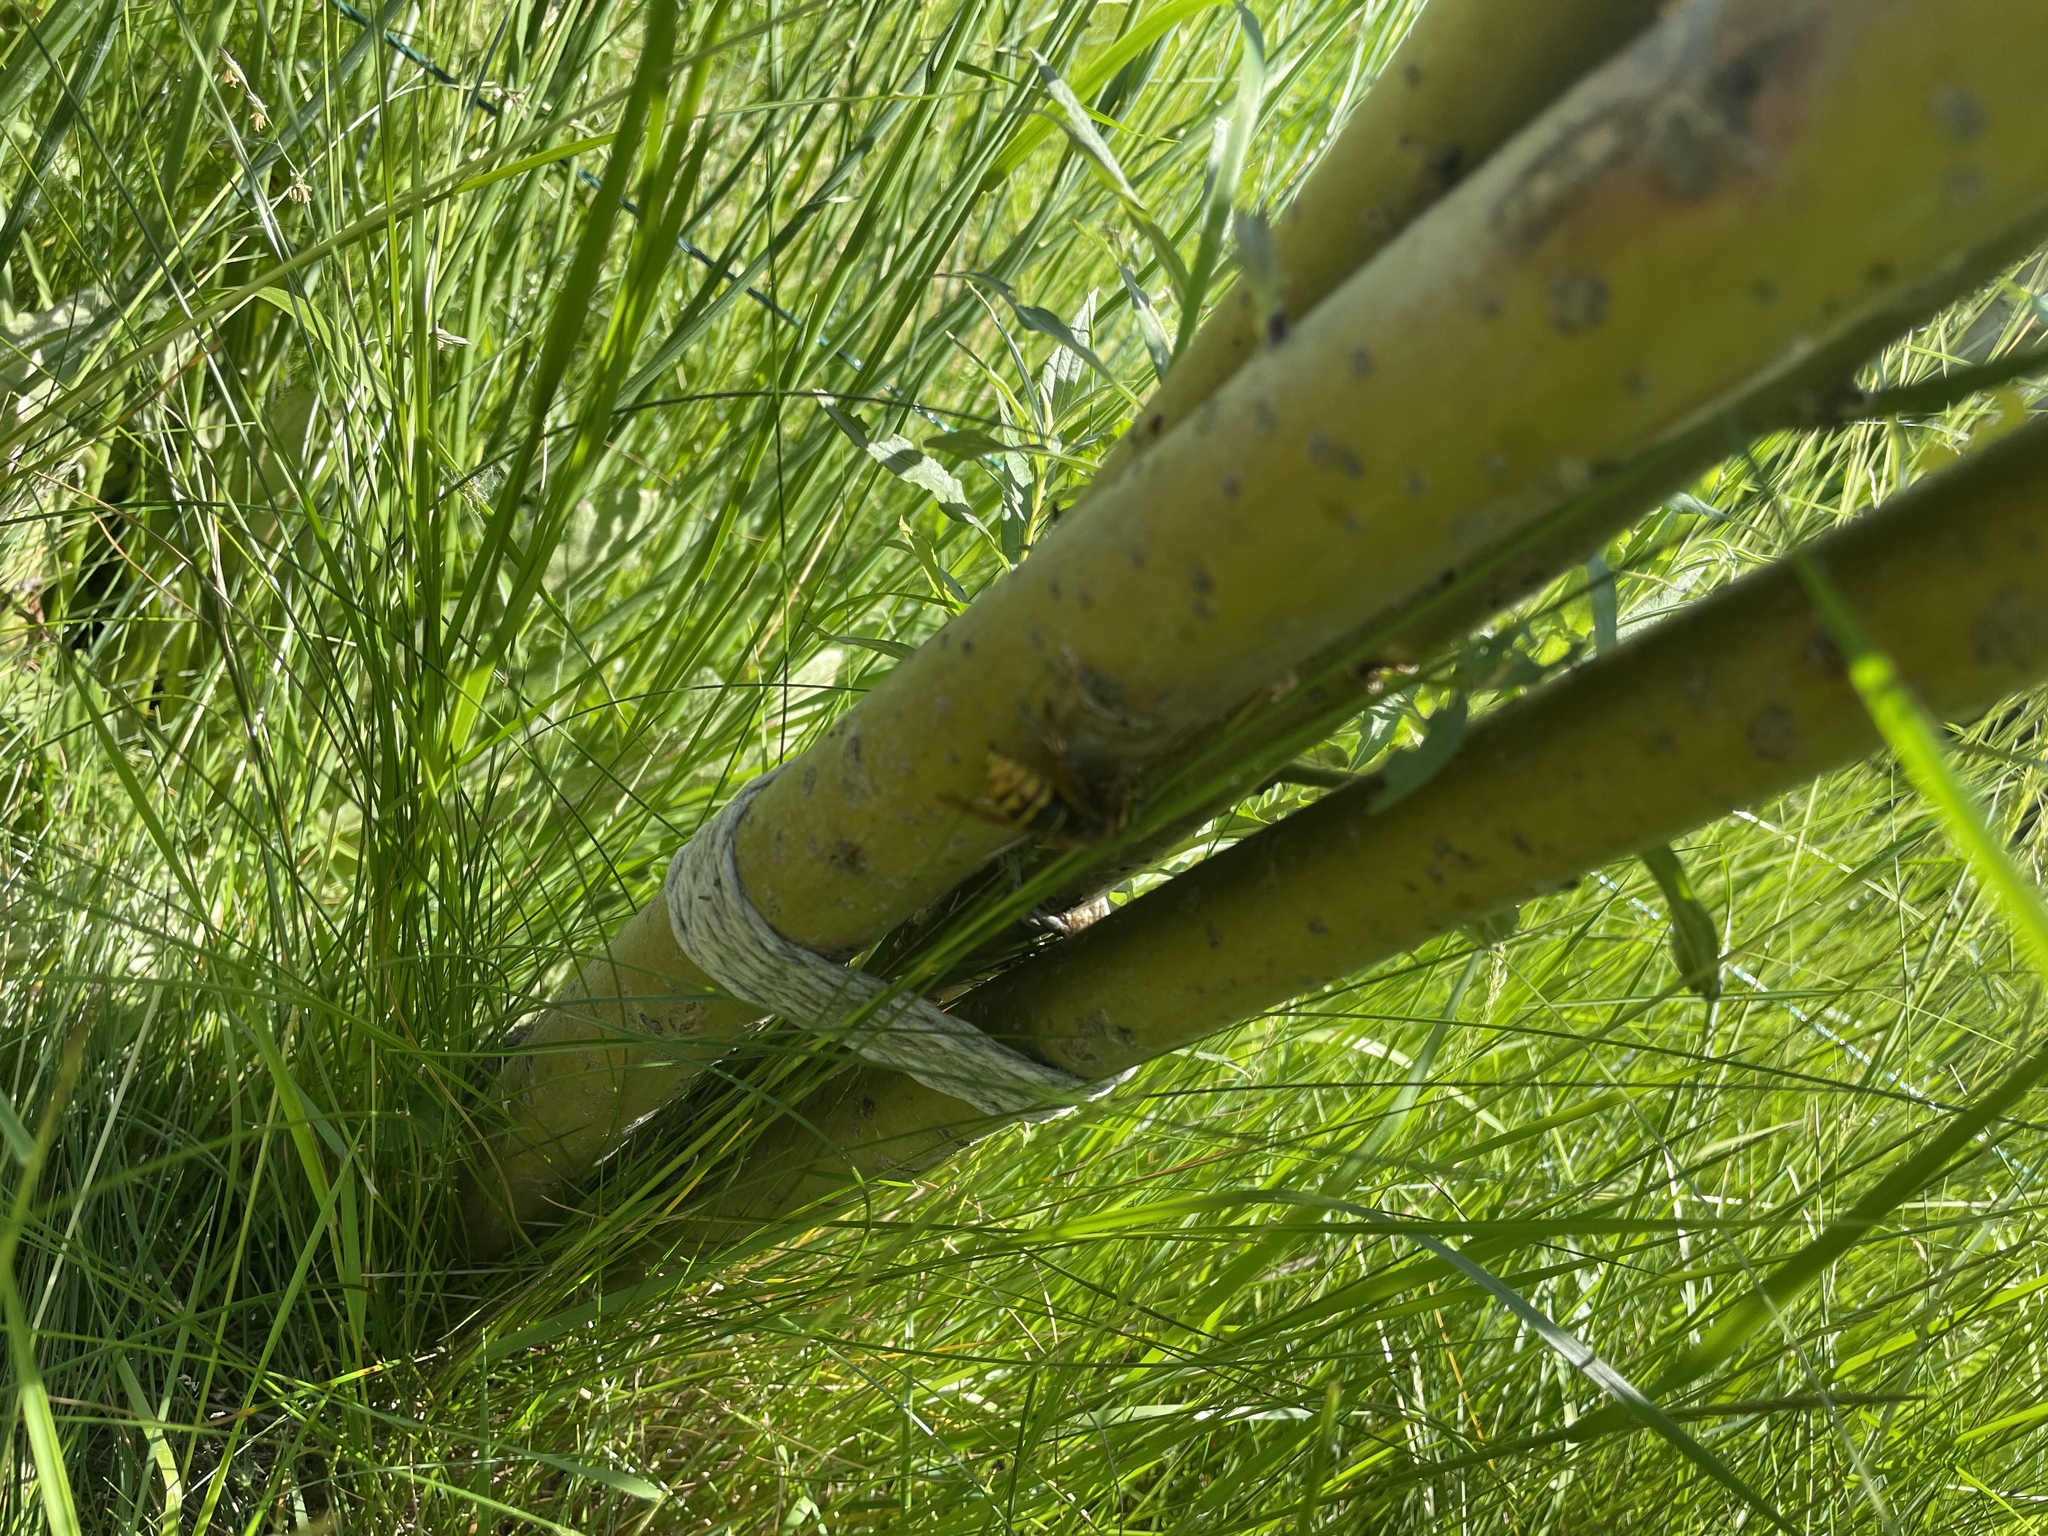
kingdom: Animalia
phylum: Arthropoda
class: Insecta
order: Hymenoptera
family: Vespidae
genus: Dolichovespula
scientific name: Dolichovespula media
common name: Median wasp
